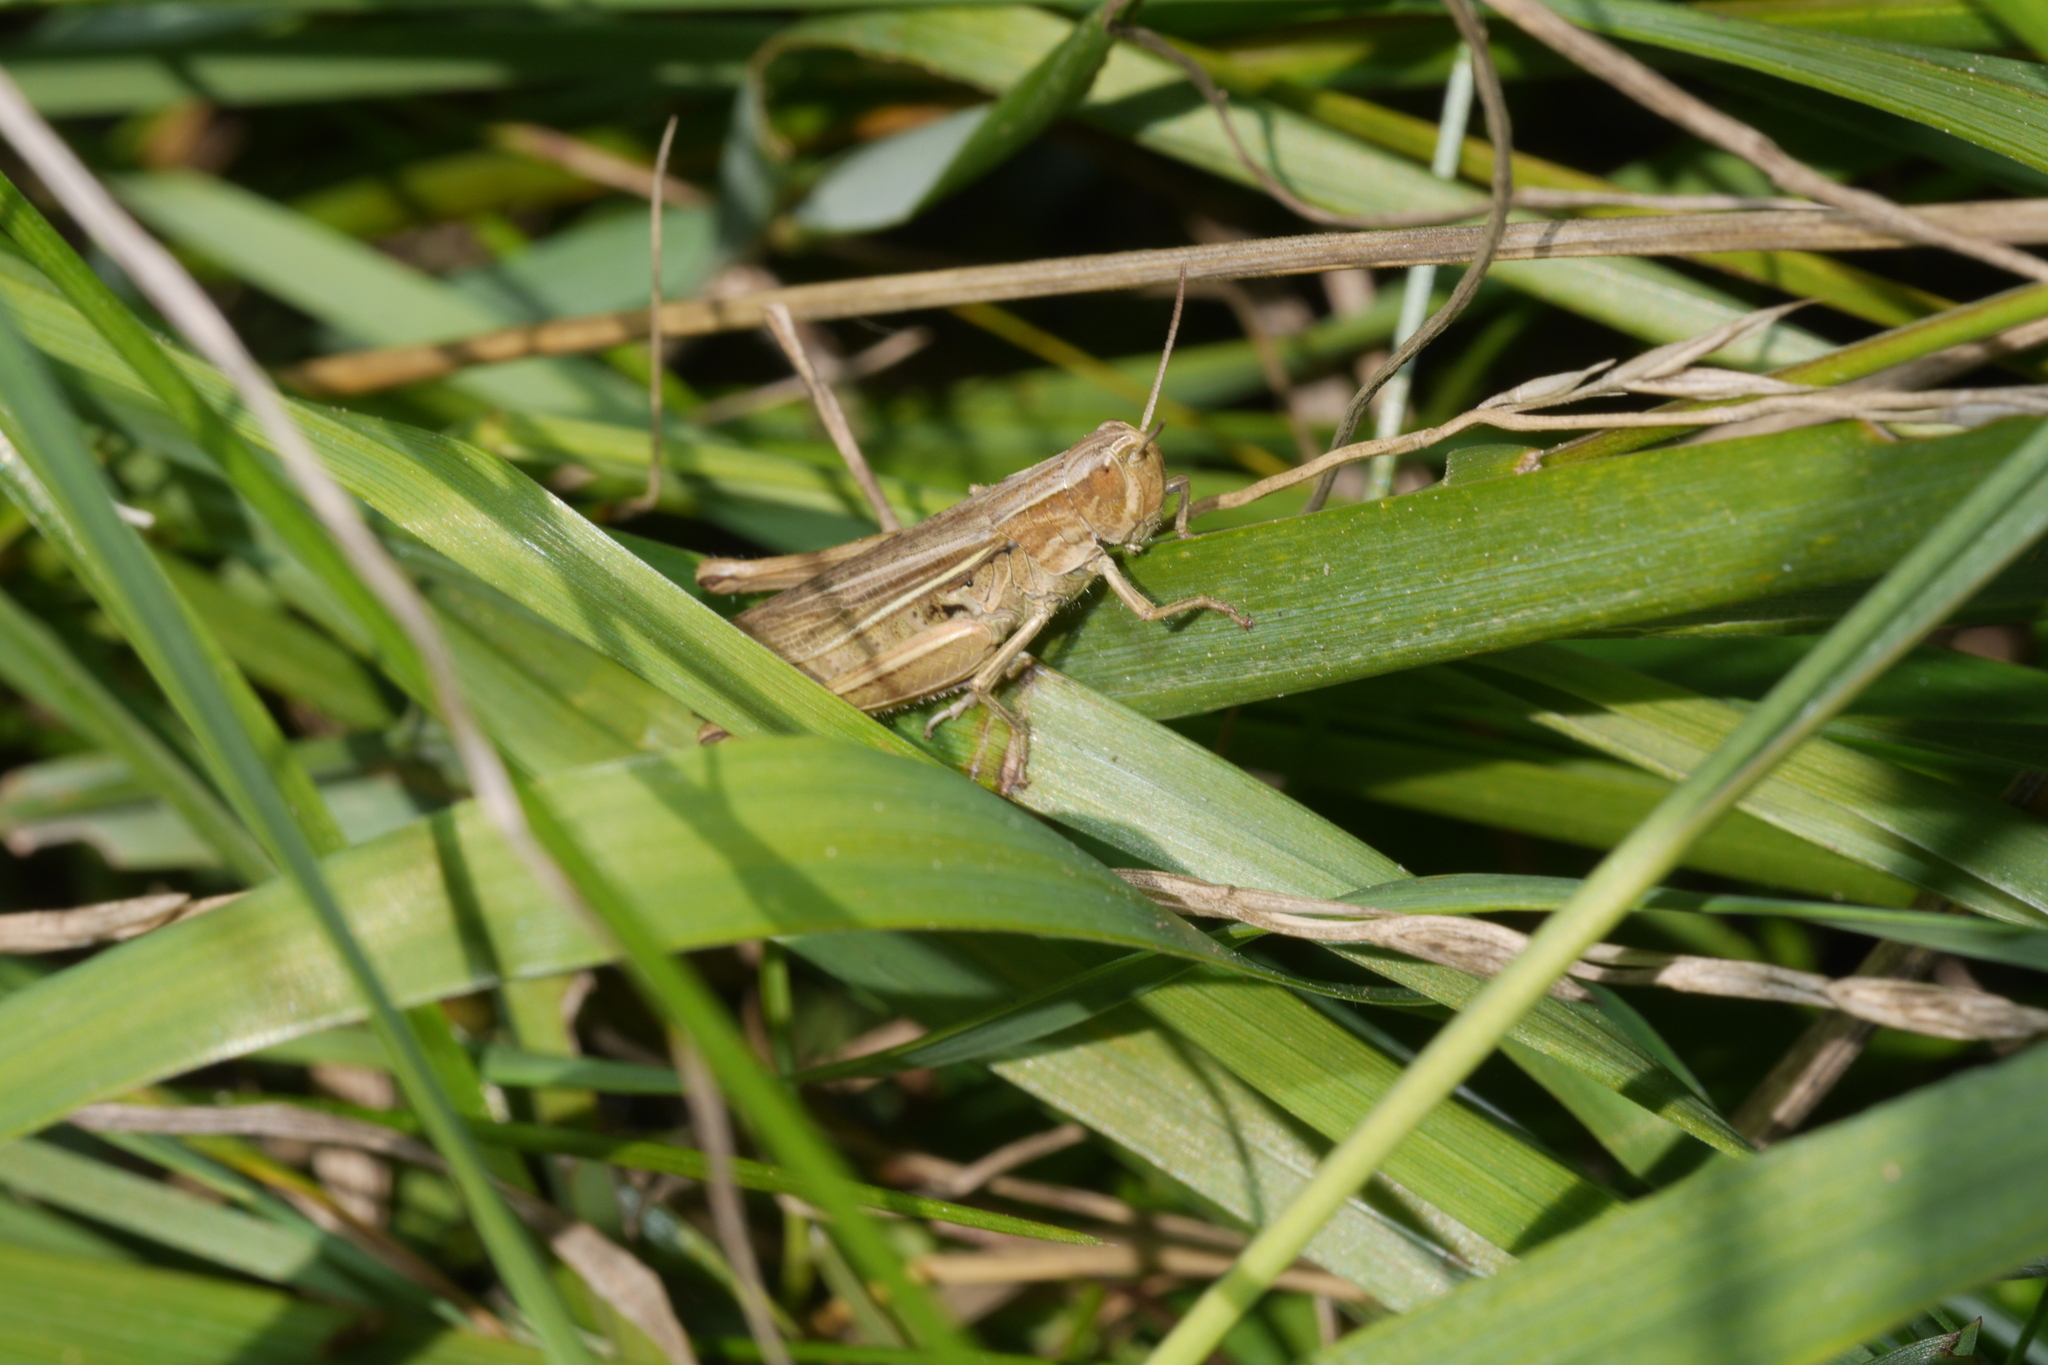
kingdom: Animalia
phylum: Arthropoda
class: Insecta
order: Orthoptera
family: Acrididae
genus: Chorthippus
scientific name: Chorthippus albomarginatus
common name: Lesser marsh grasshopper
